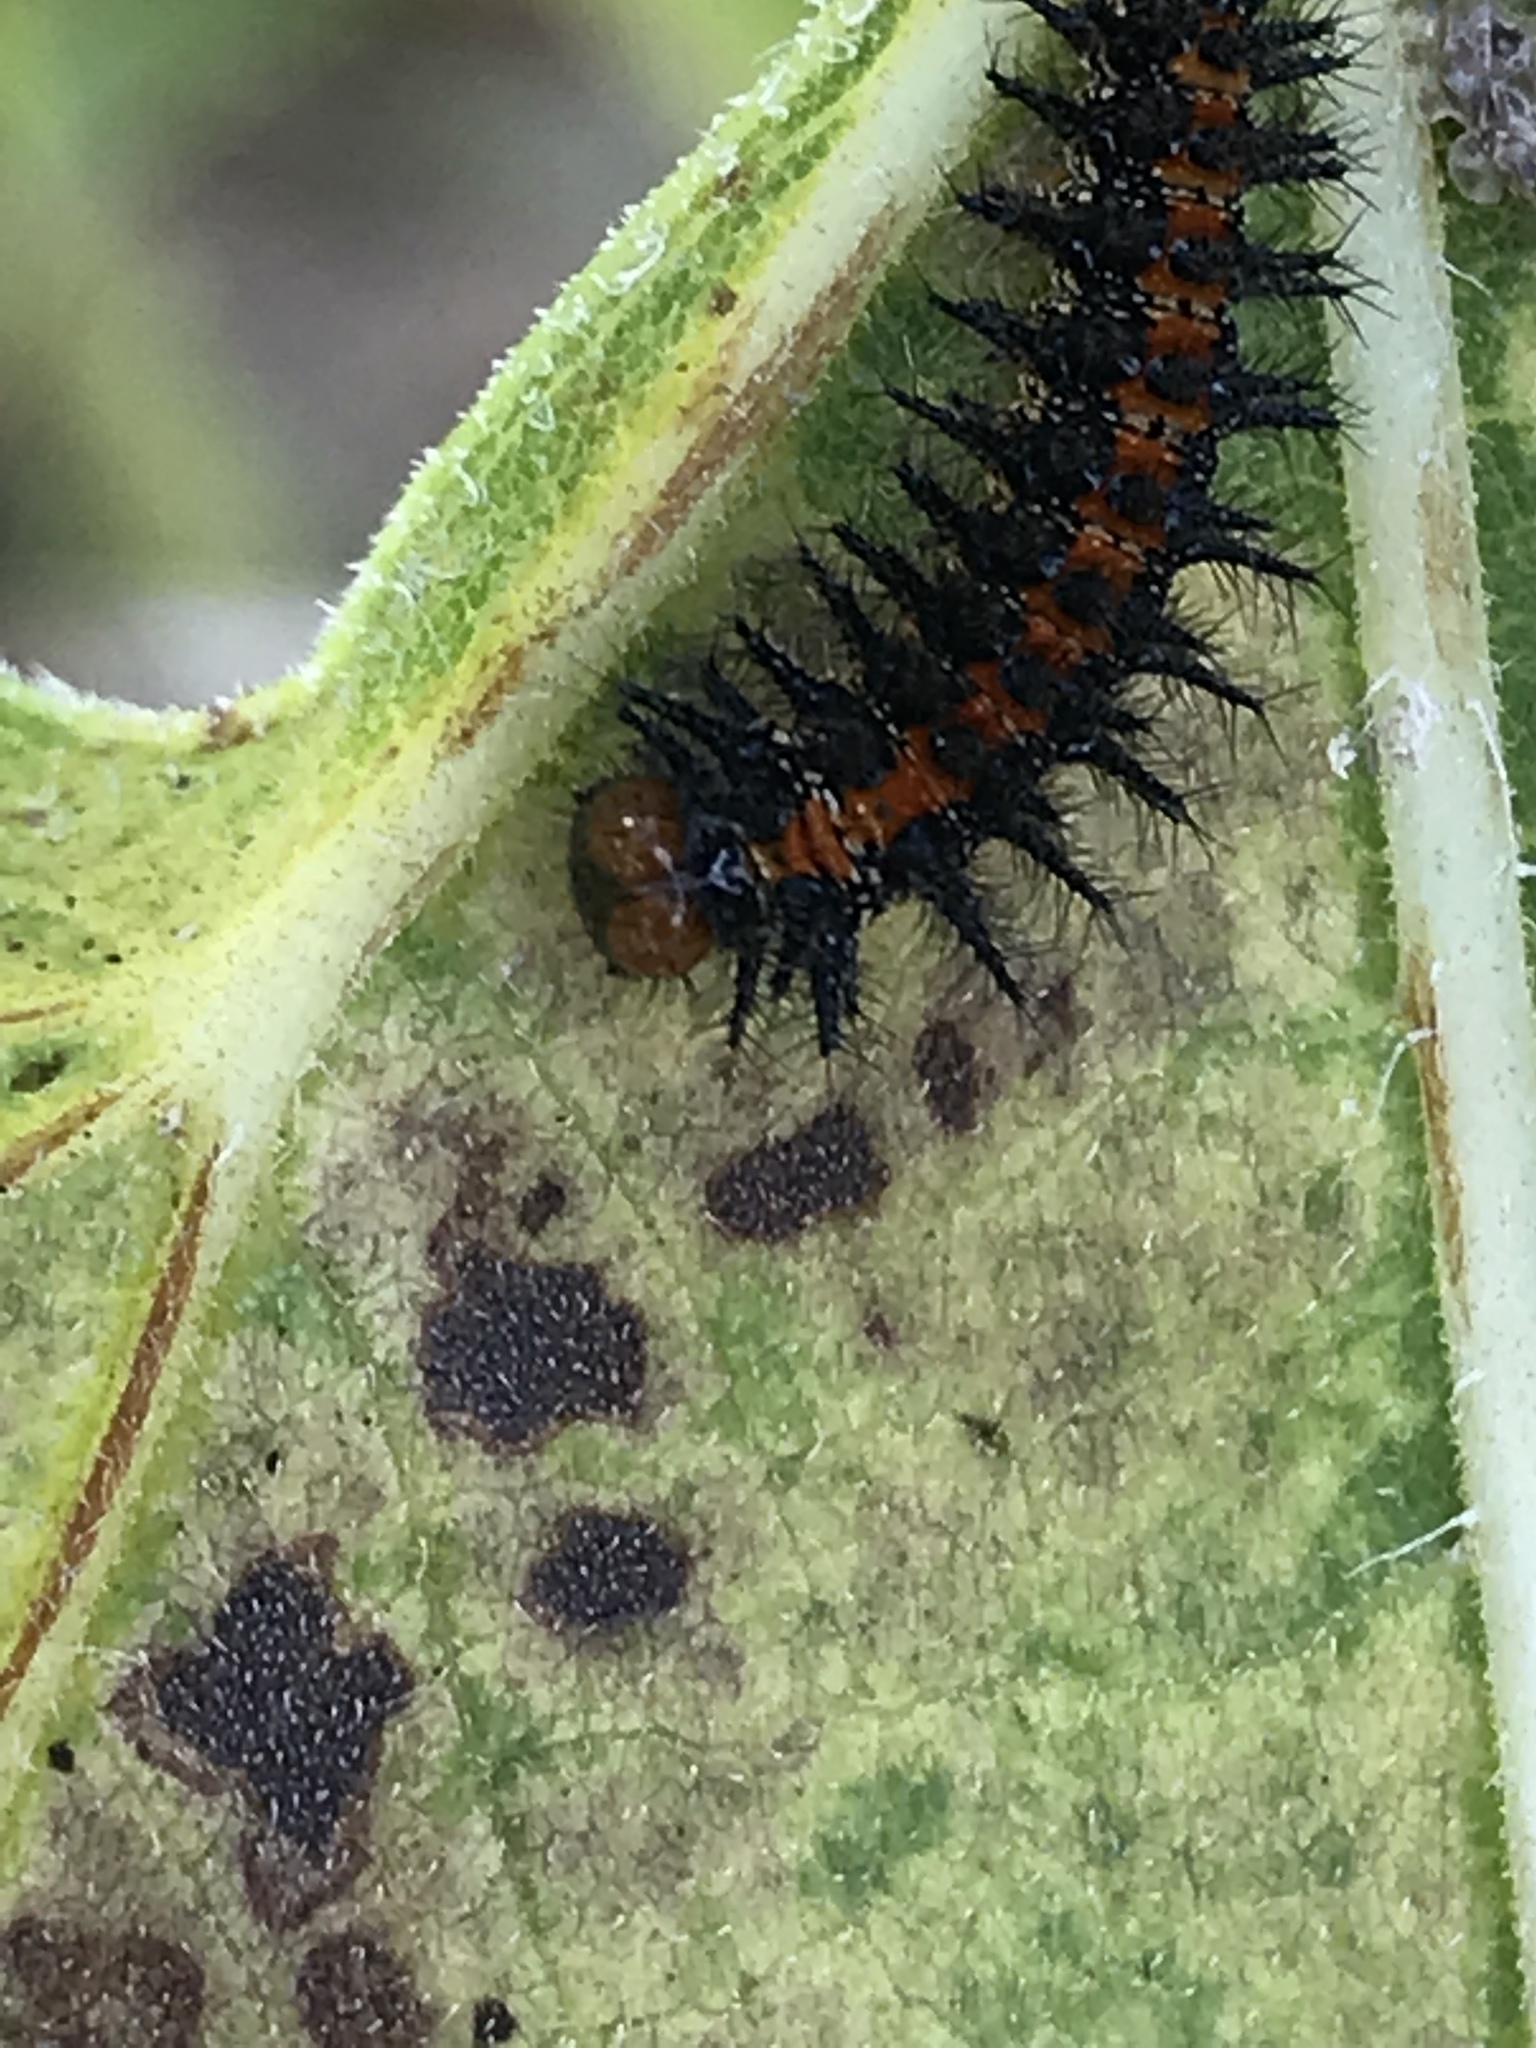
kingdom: Animalia
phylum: Arthropoda
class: Insecta
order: Lepidoptera
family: Nymphalidae
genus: Chlosyne
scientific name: Chlosyne lacinia
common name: Bordered patch
